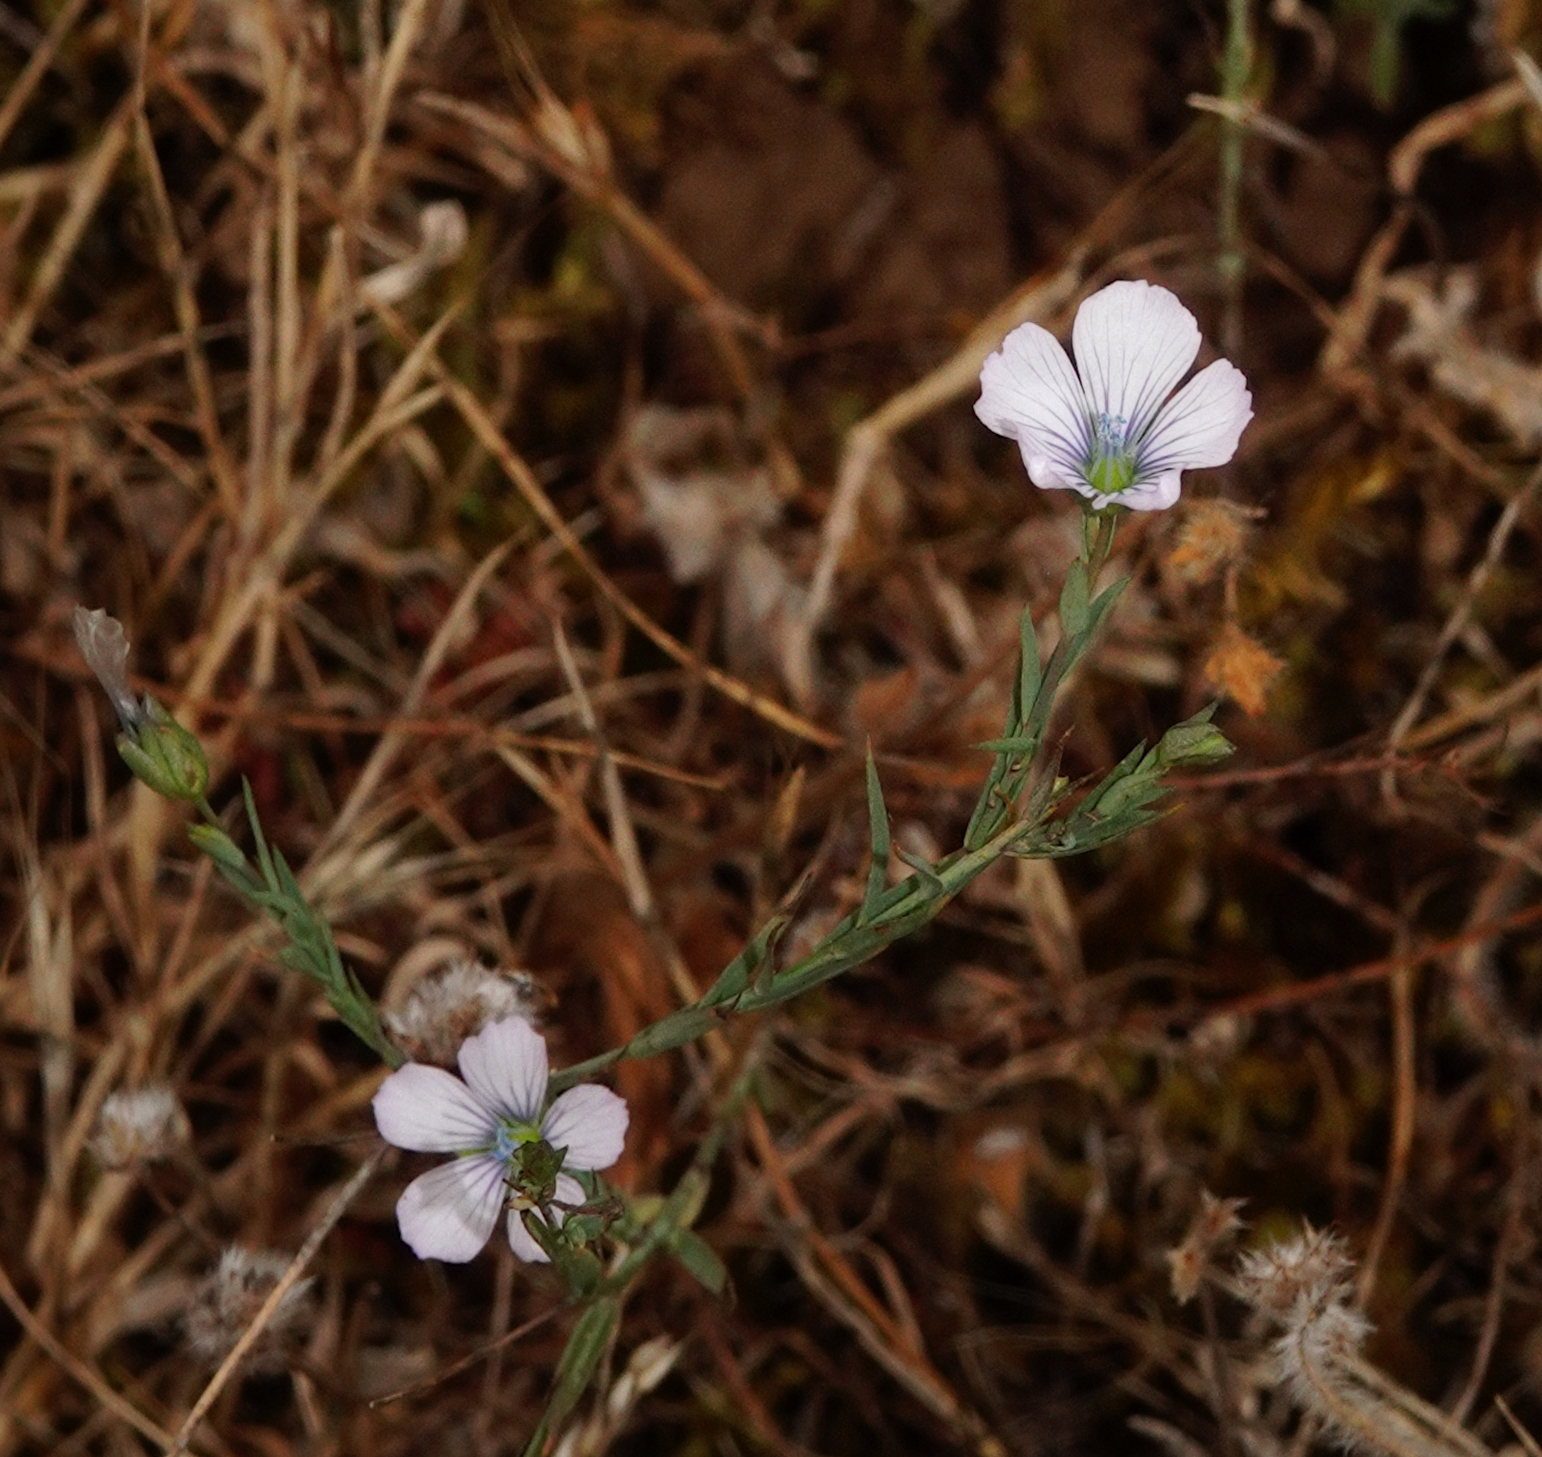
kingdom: Plantae
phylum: Tracheophyta
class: Magnoliopsida
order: Malpighiales
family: Linaceae
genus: Linum
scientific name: Linum bienne
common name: Pale flax
